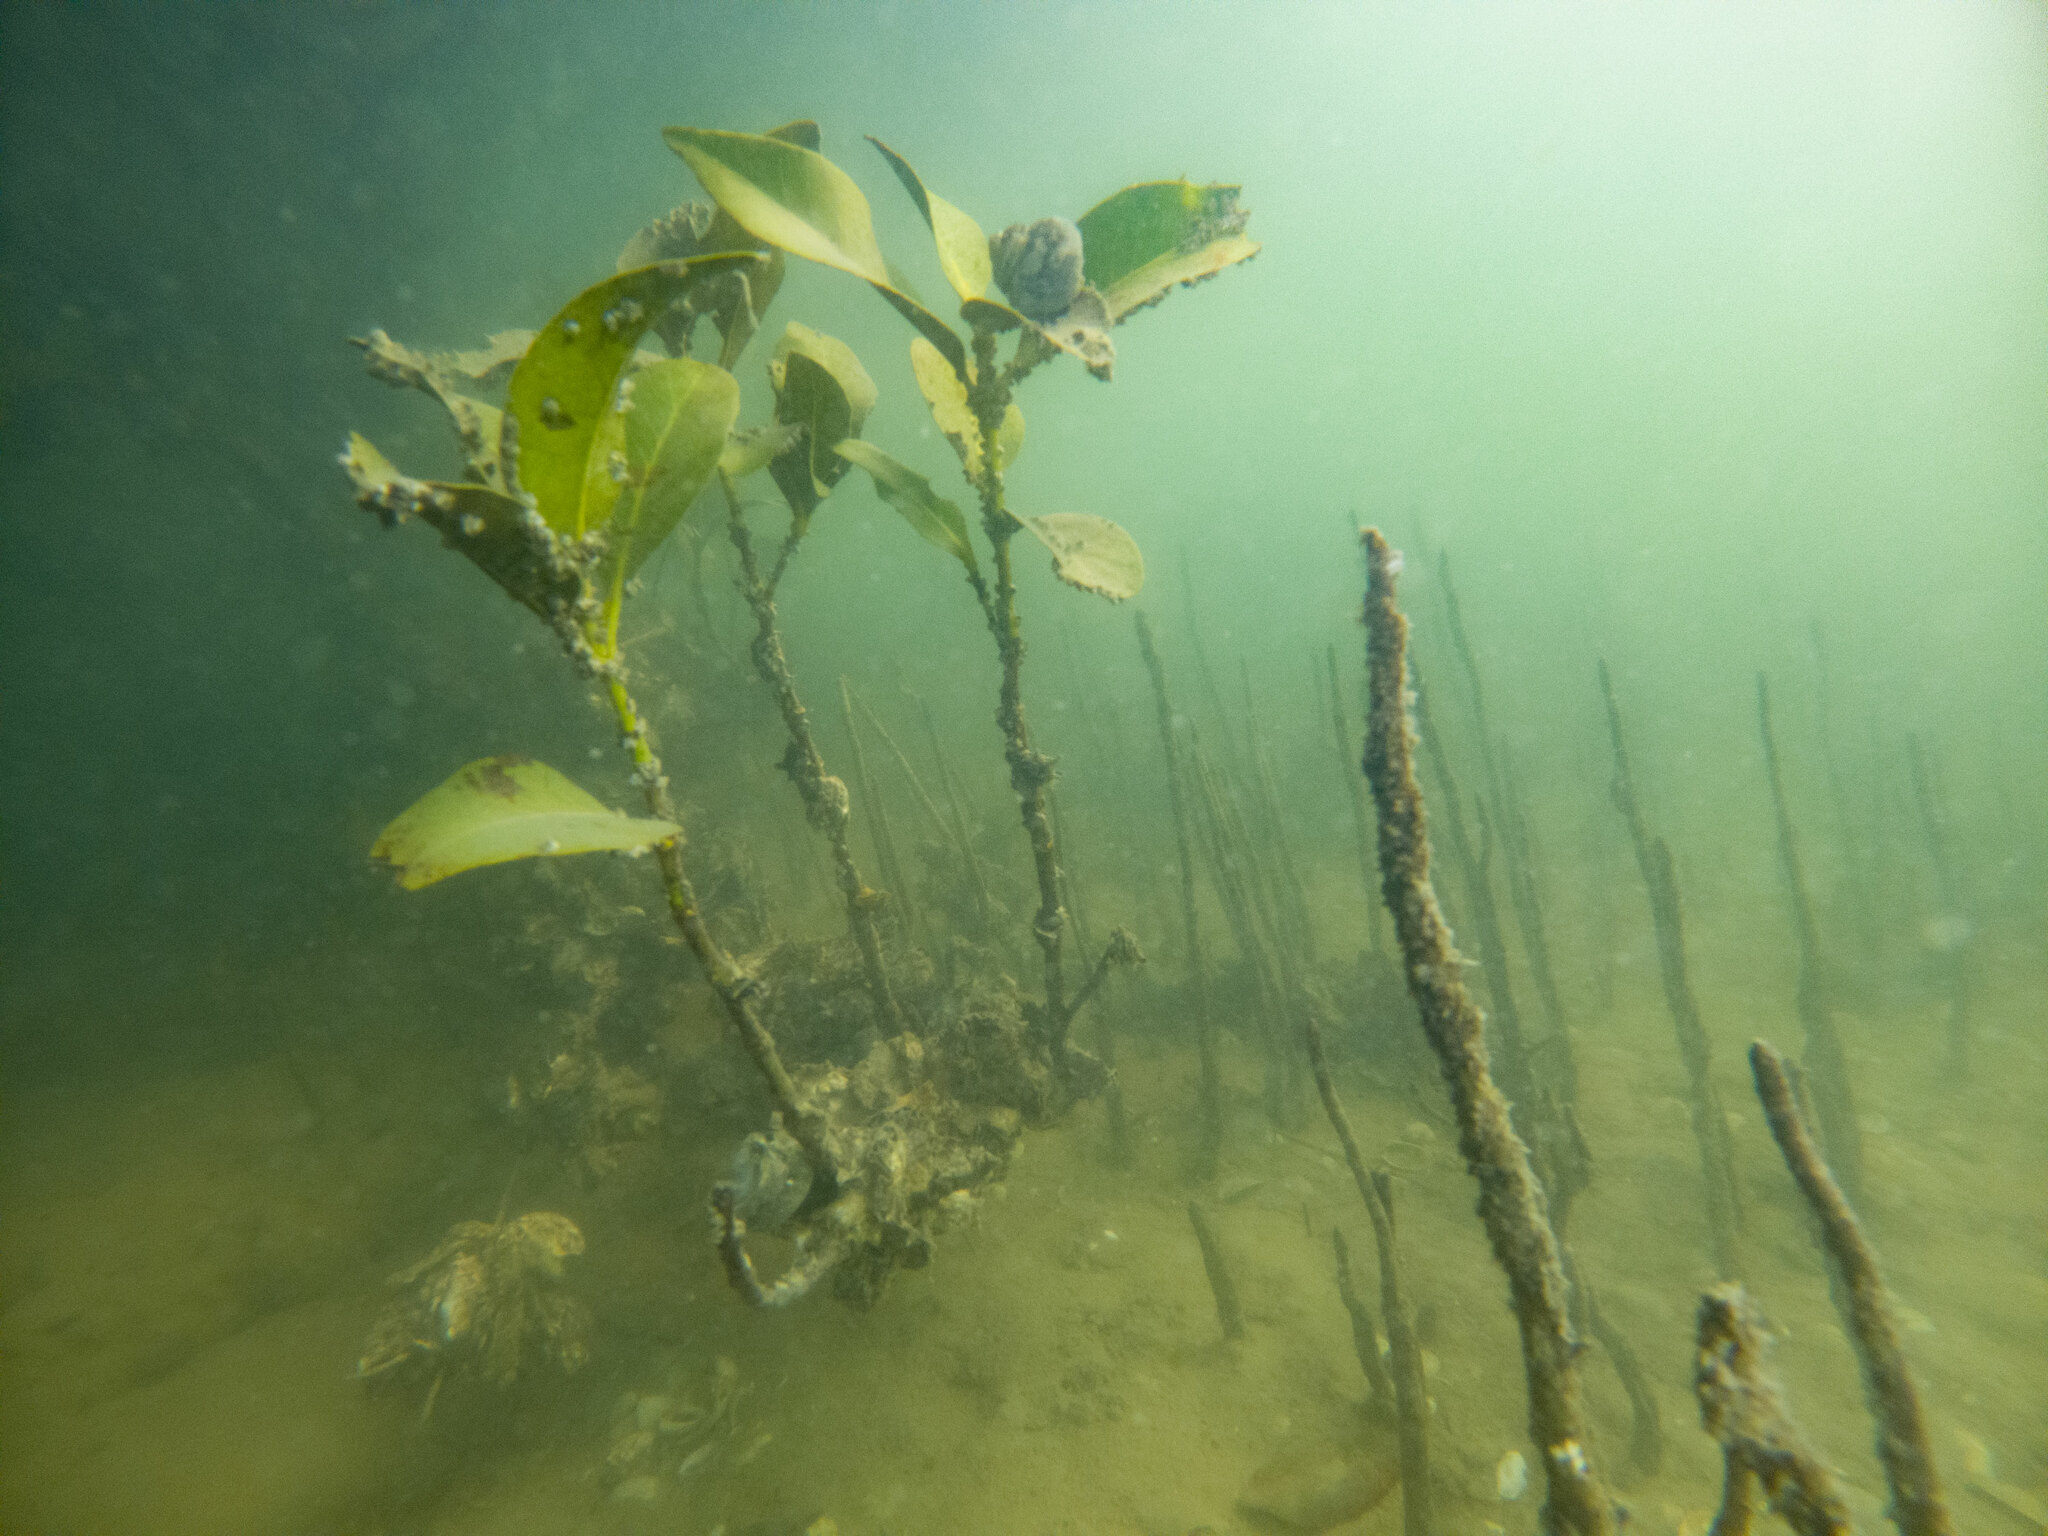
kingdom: Plantae
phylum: Tracheophyta
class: Magnoliopsida
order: Lamiales
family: Acanthaceae
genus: Avicennia
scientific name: Avicennia marina
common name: Gray mangrove
